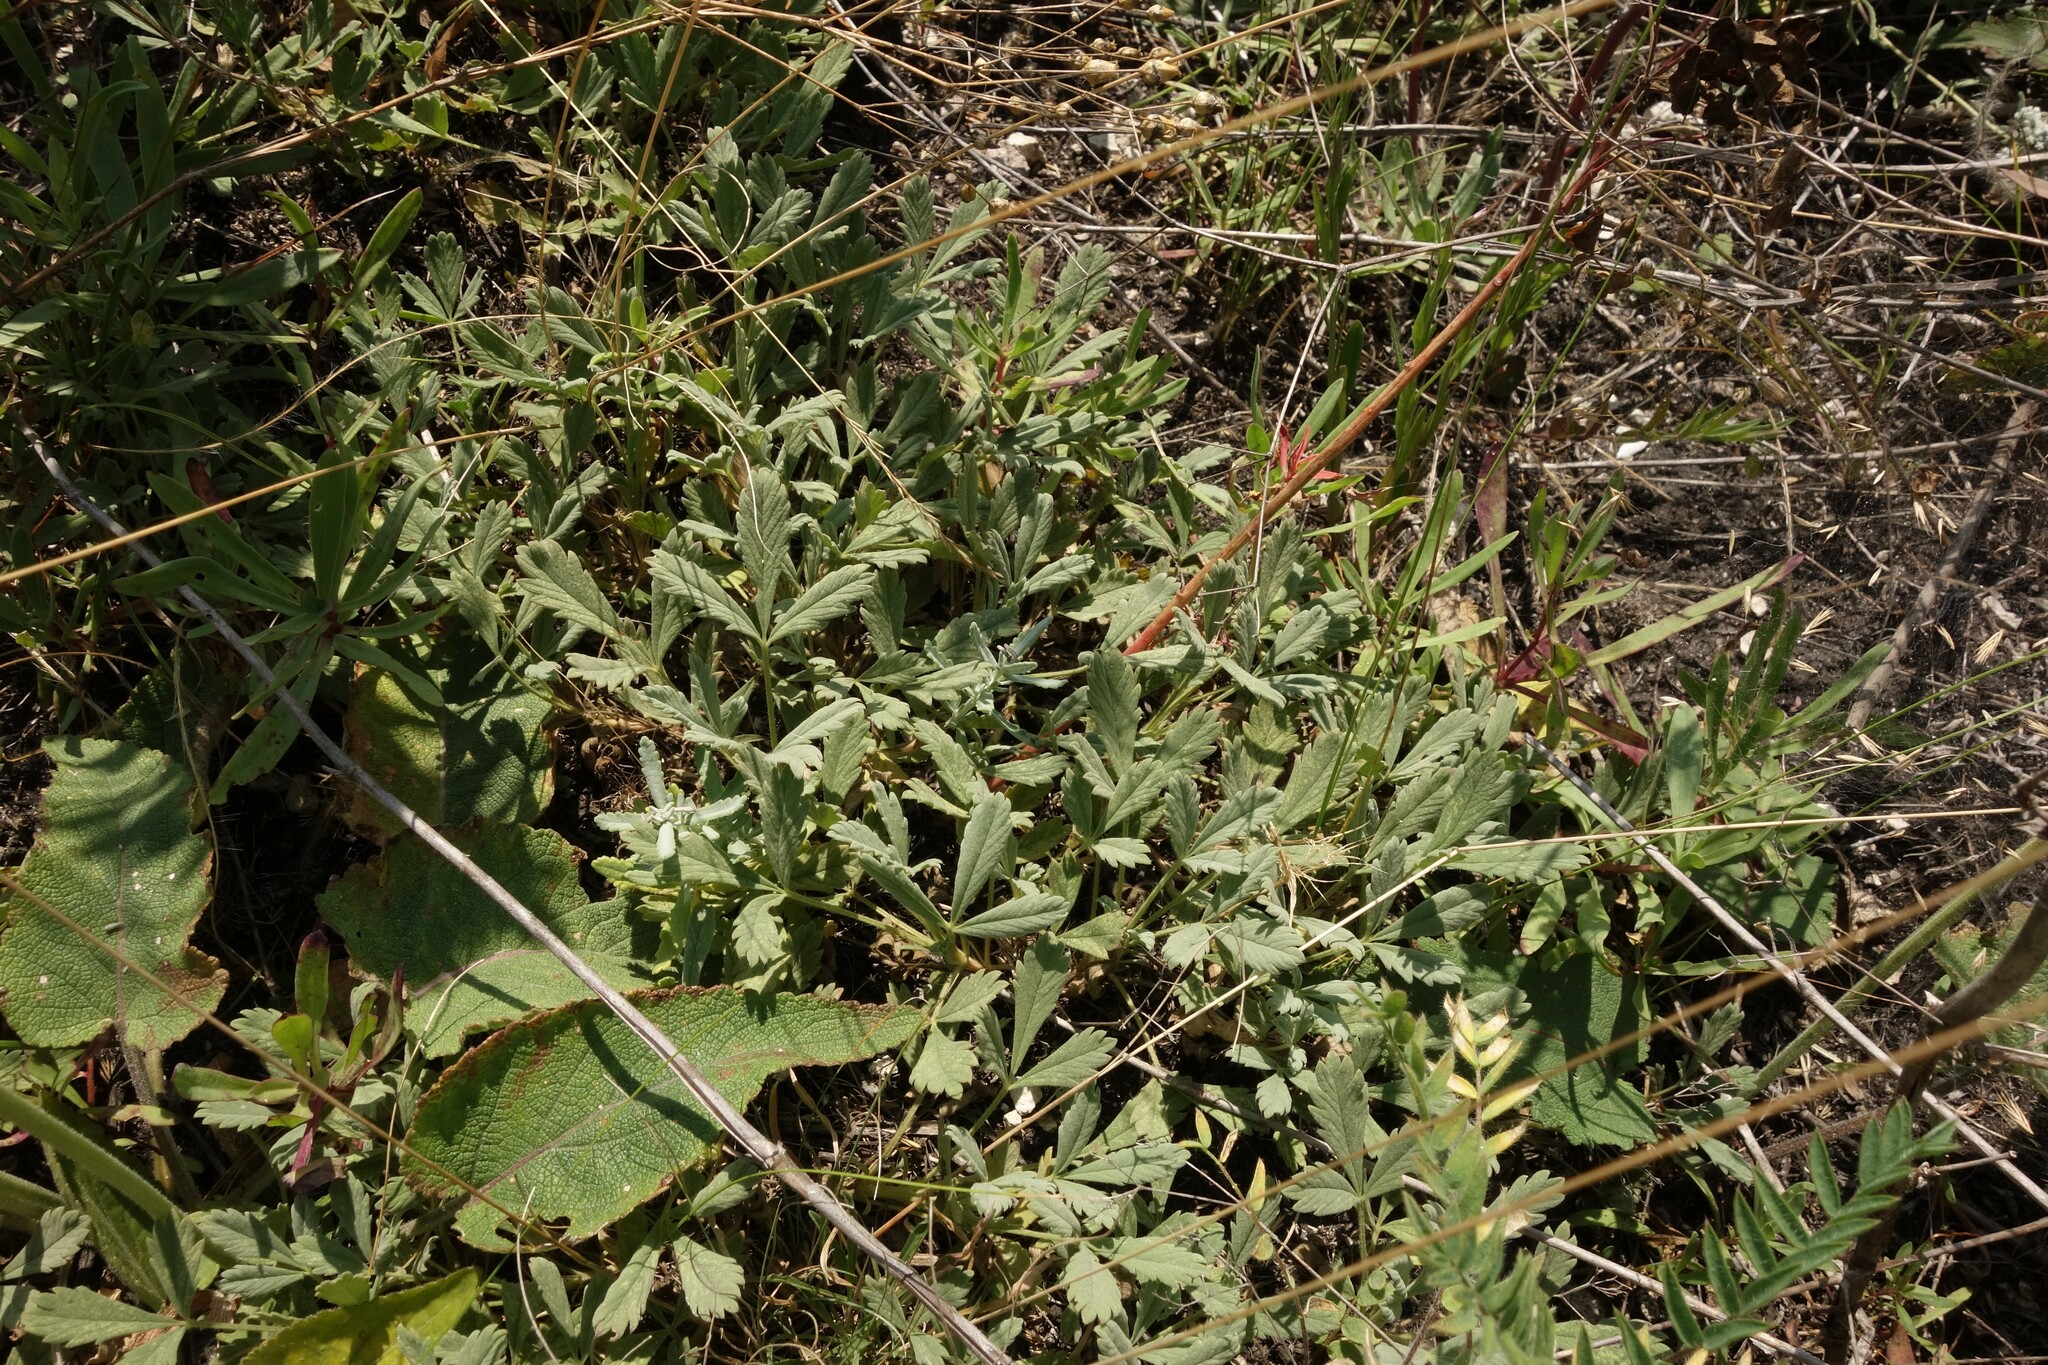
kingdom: Plantae
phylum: Tracheophyta
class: Magnoliopsida
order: Rosales
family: Rosaceae
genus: Potentilla
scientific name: Potentilla incana
